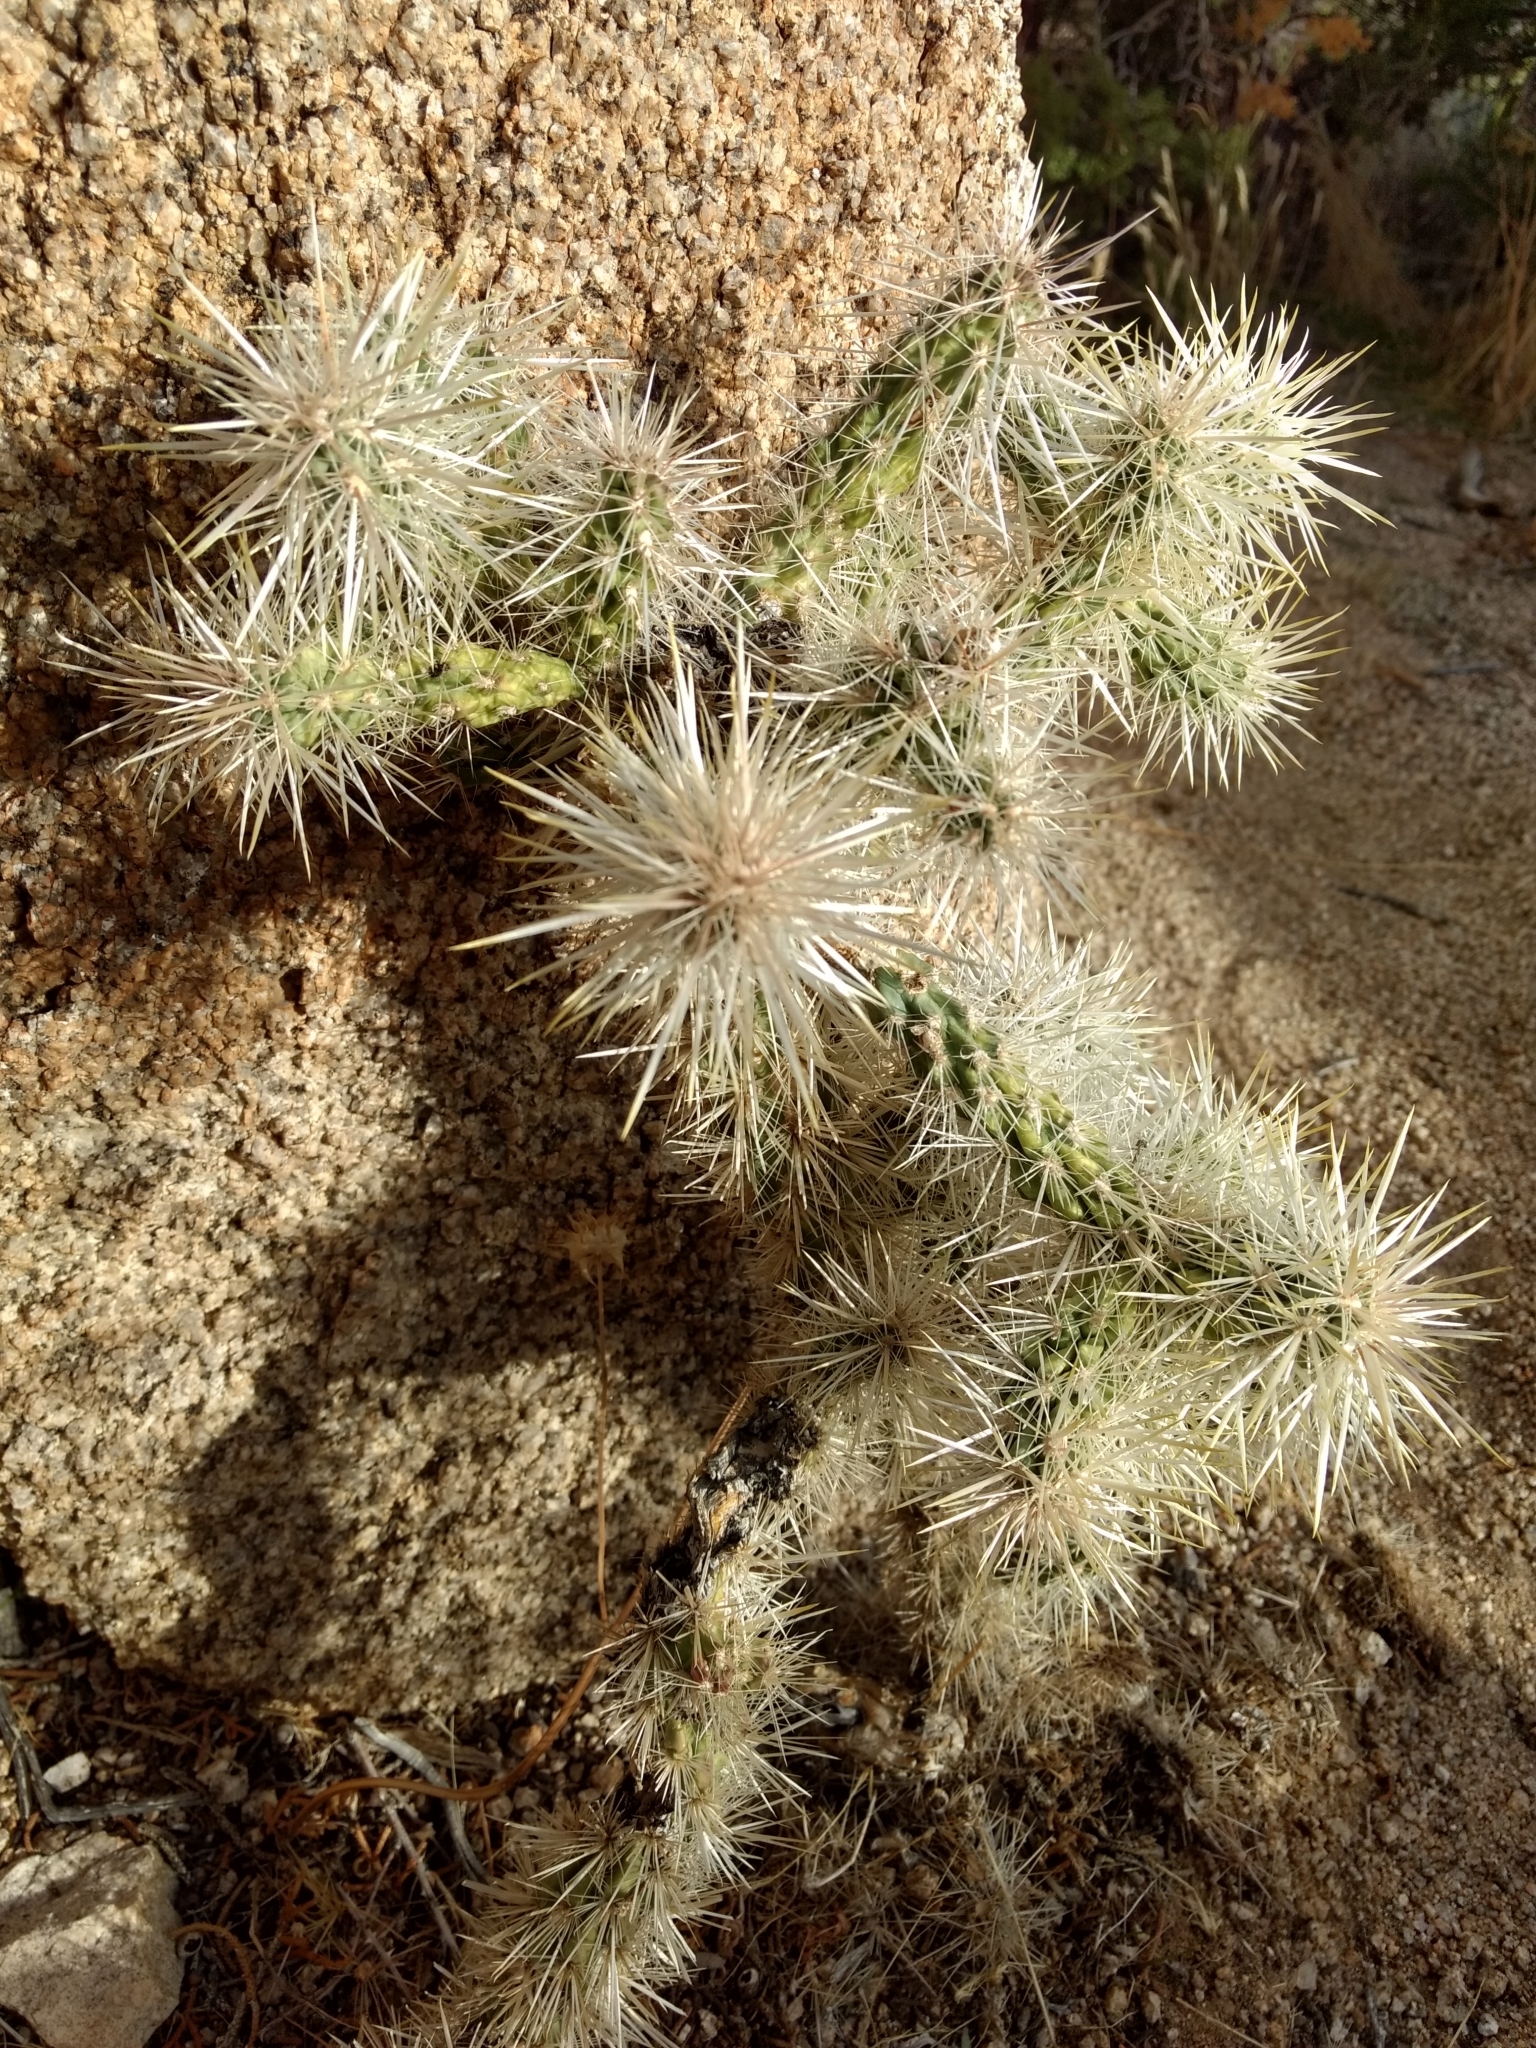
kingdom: Plantae
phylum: Tracheophyta
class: Magnoliopsida
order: Caryophyllales
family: Cactaceae
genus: Cylindropuntia
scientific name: Cylindropuntia echinocarpa
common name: Ground cholla
